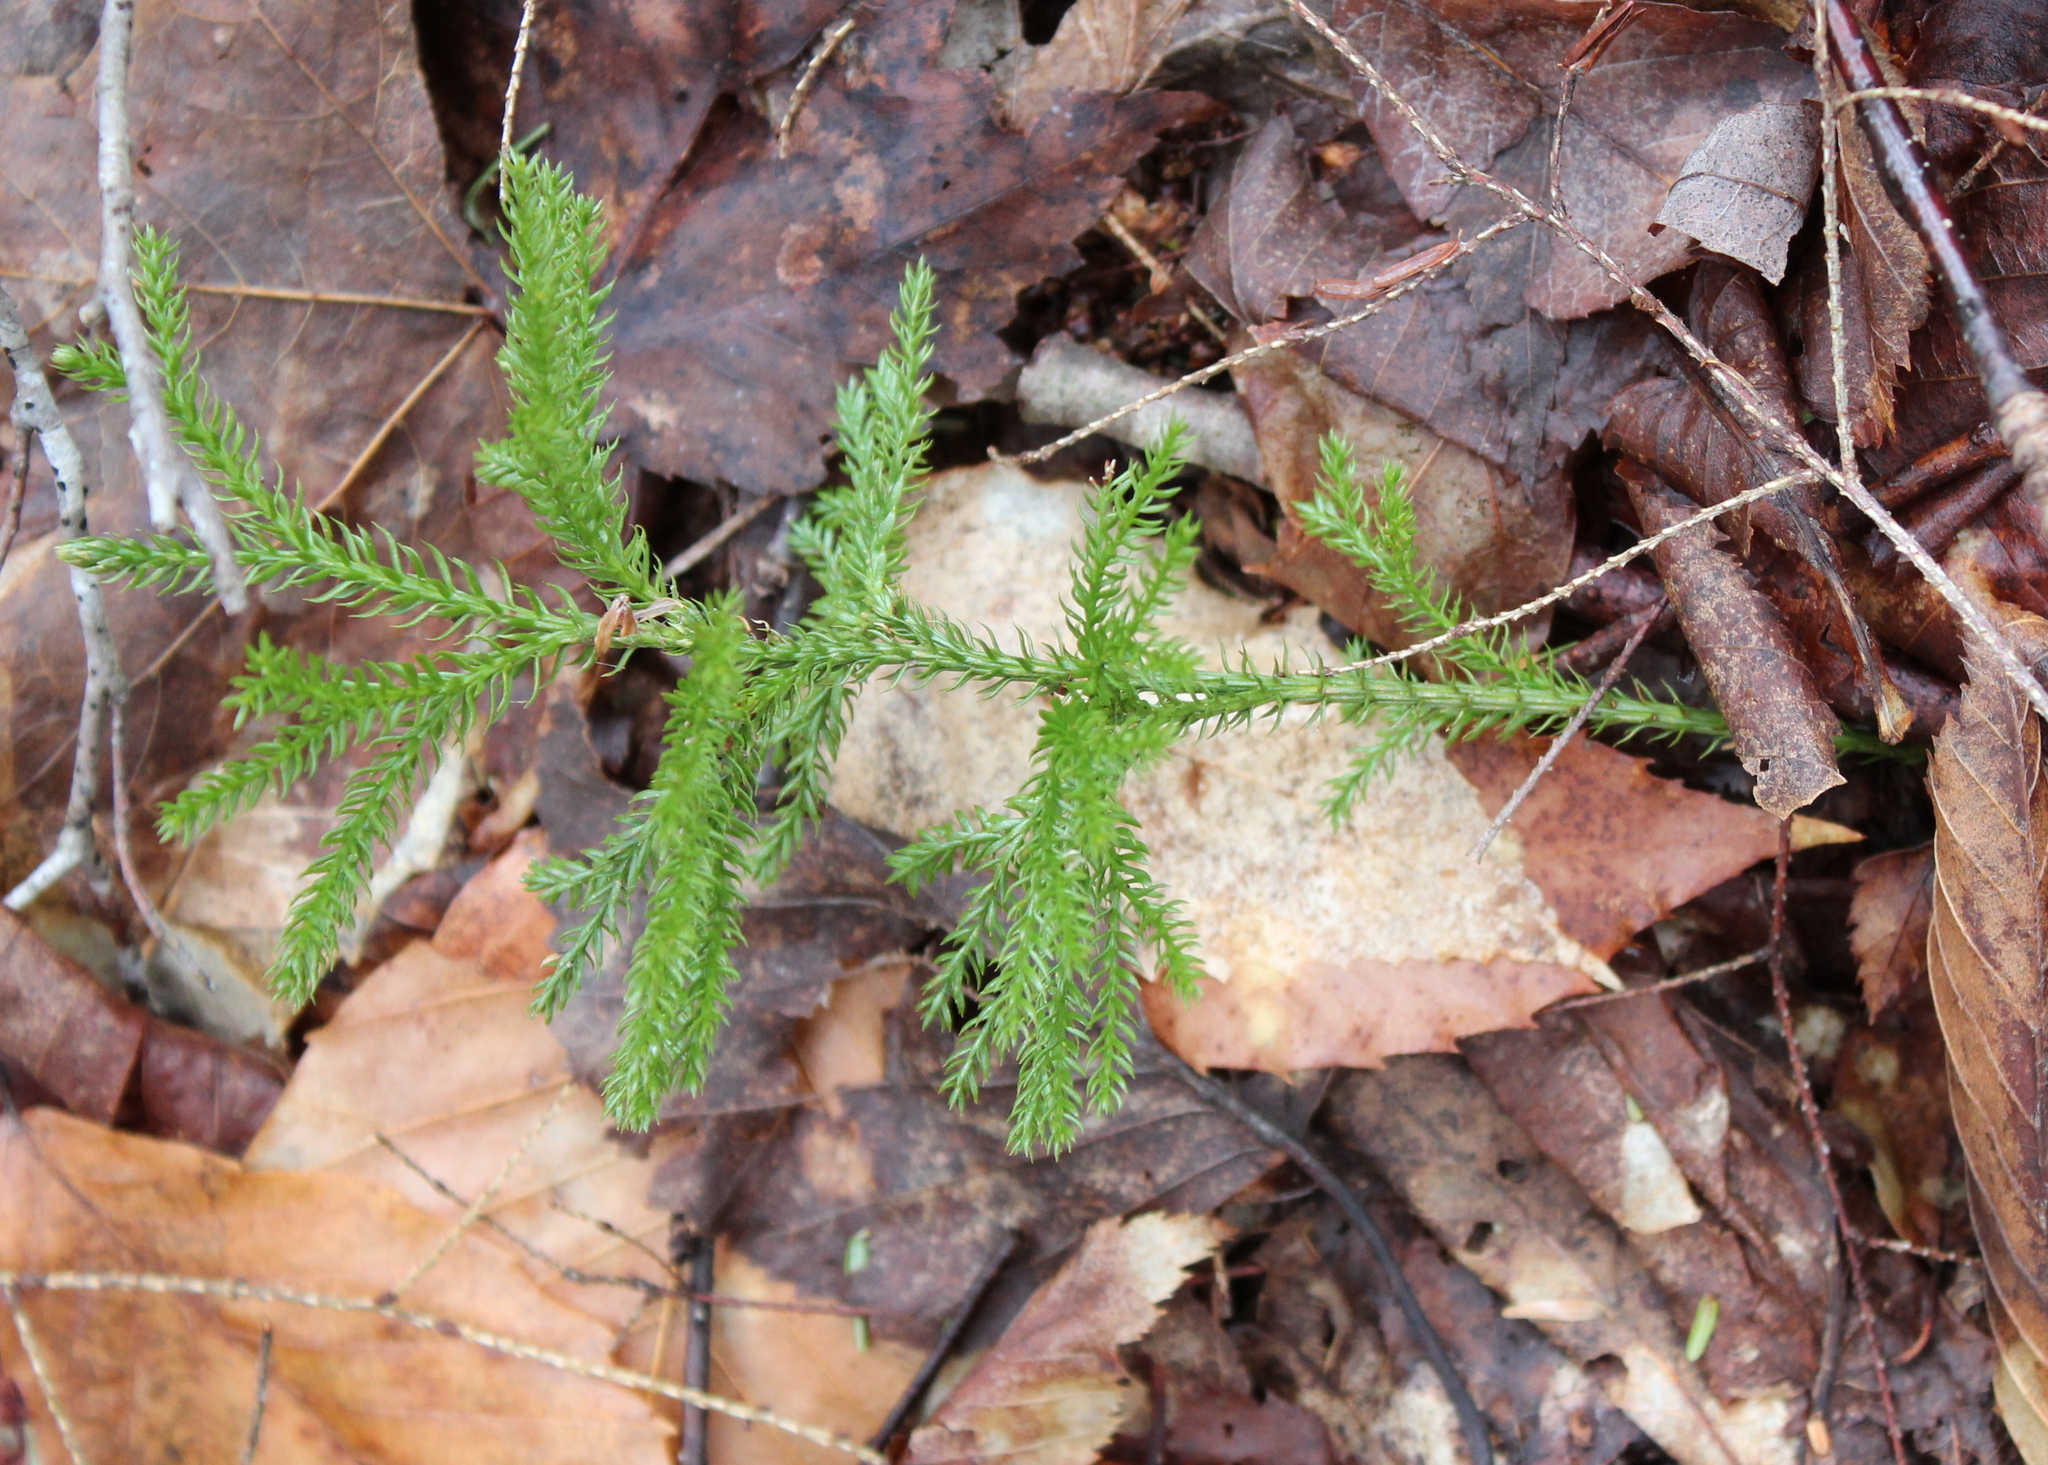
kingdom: Plantae
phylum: Tracheophyta
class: Lycopodiopsida
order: Lycopodiales
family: Lycopodiaceae
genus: Dendrolycopodium
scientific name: Dendrolycopodium dendroideum
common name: Northern tree-clubmoss
